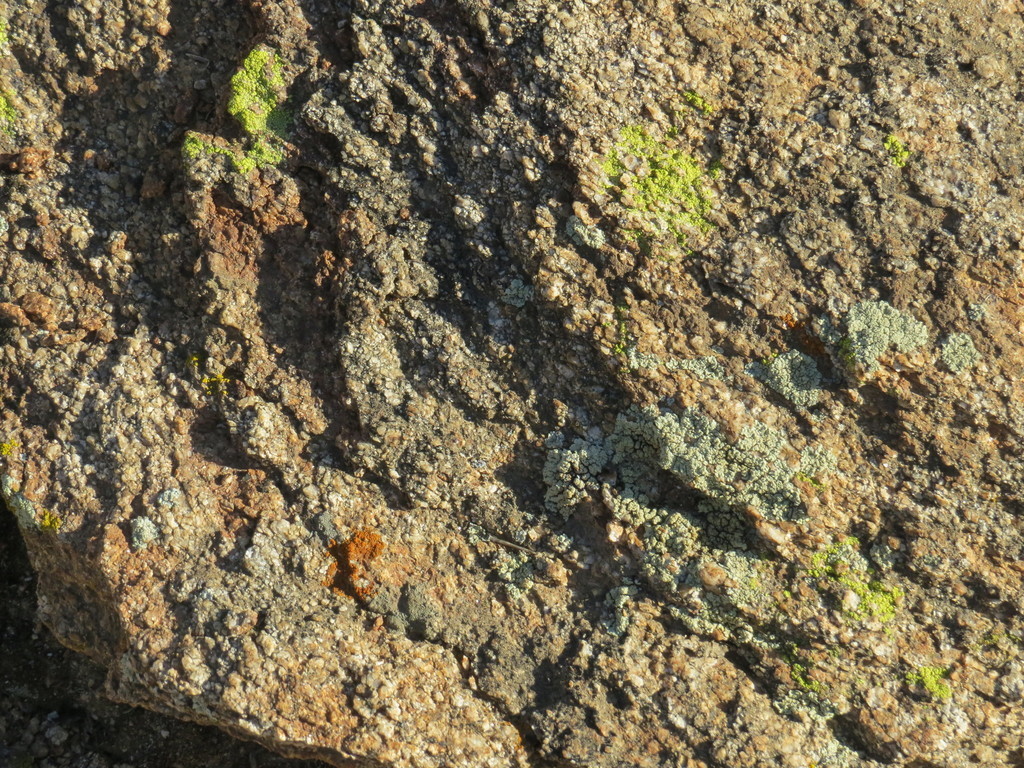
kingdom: Fungi
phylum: Ascomycota
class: Lecanoromycetes
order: Lecanorales
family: Lecanoraceae
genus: Protoparmeliopsis
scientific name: Protoparmeliopsis muralis
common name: Stonewall rim lichen
